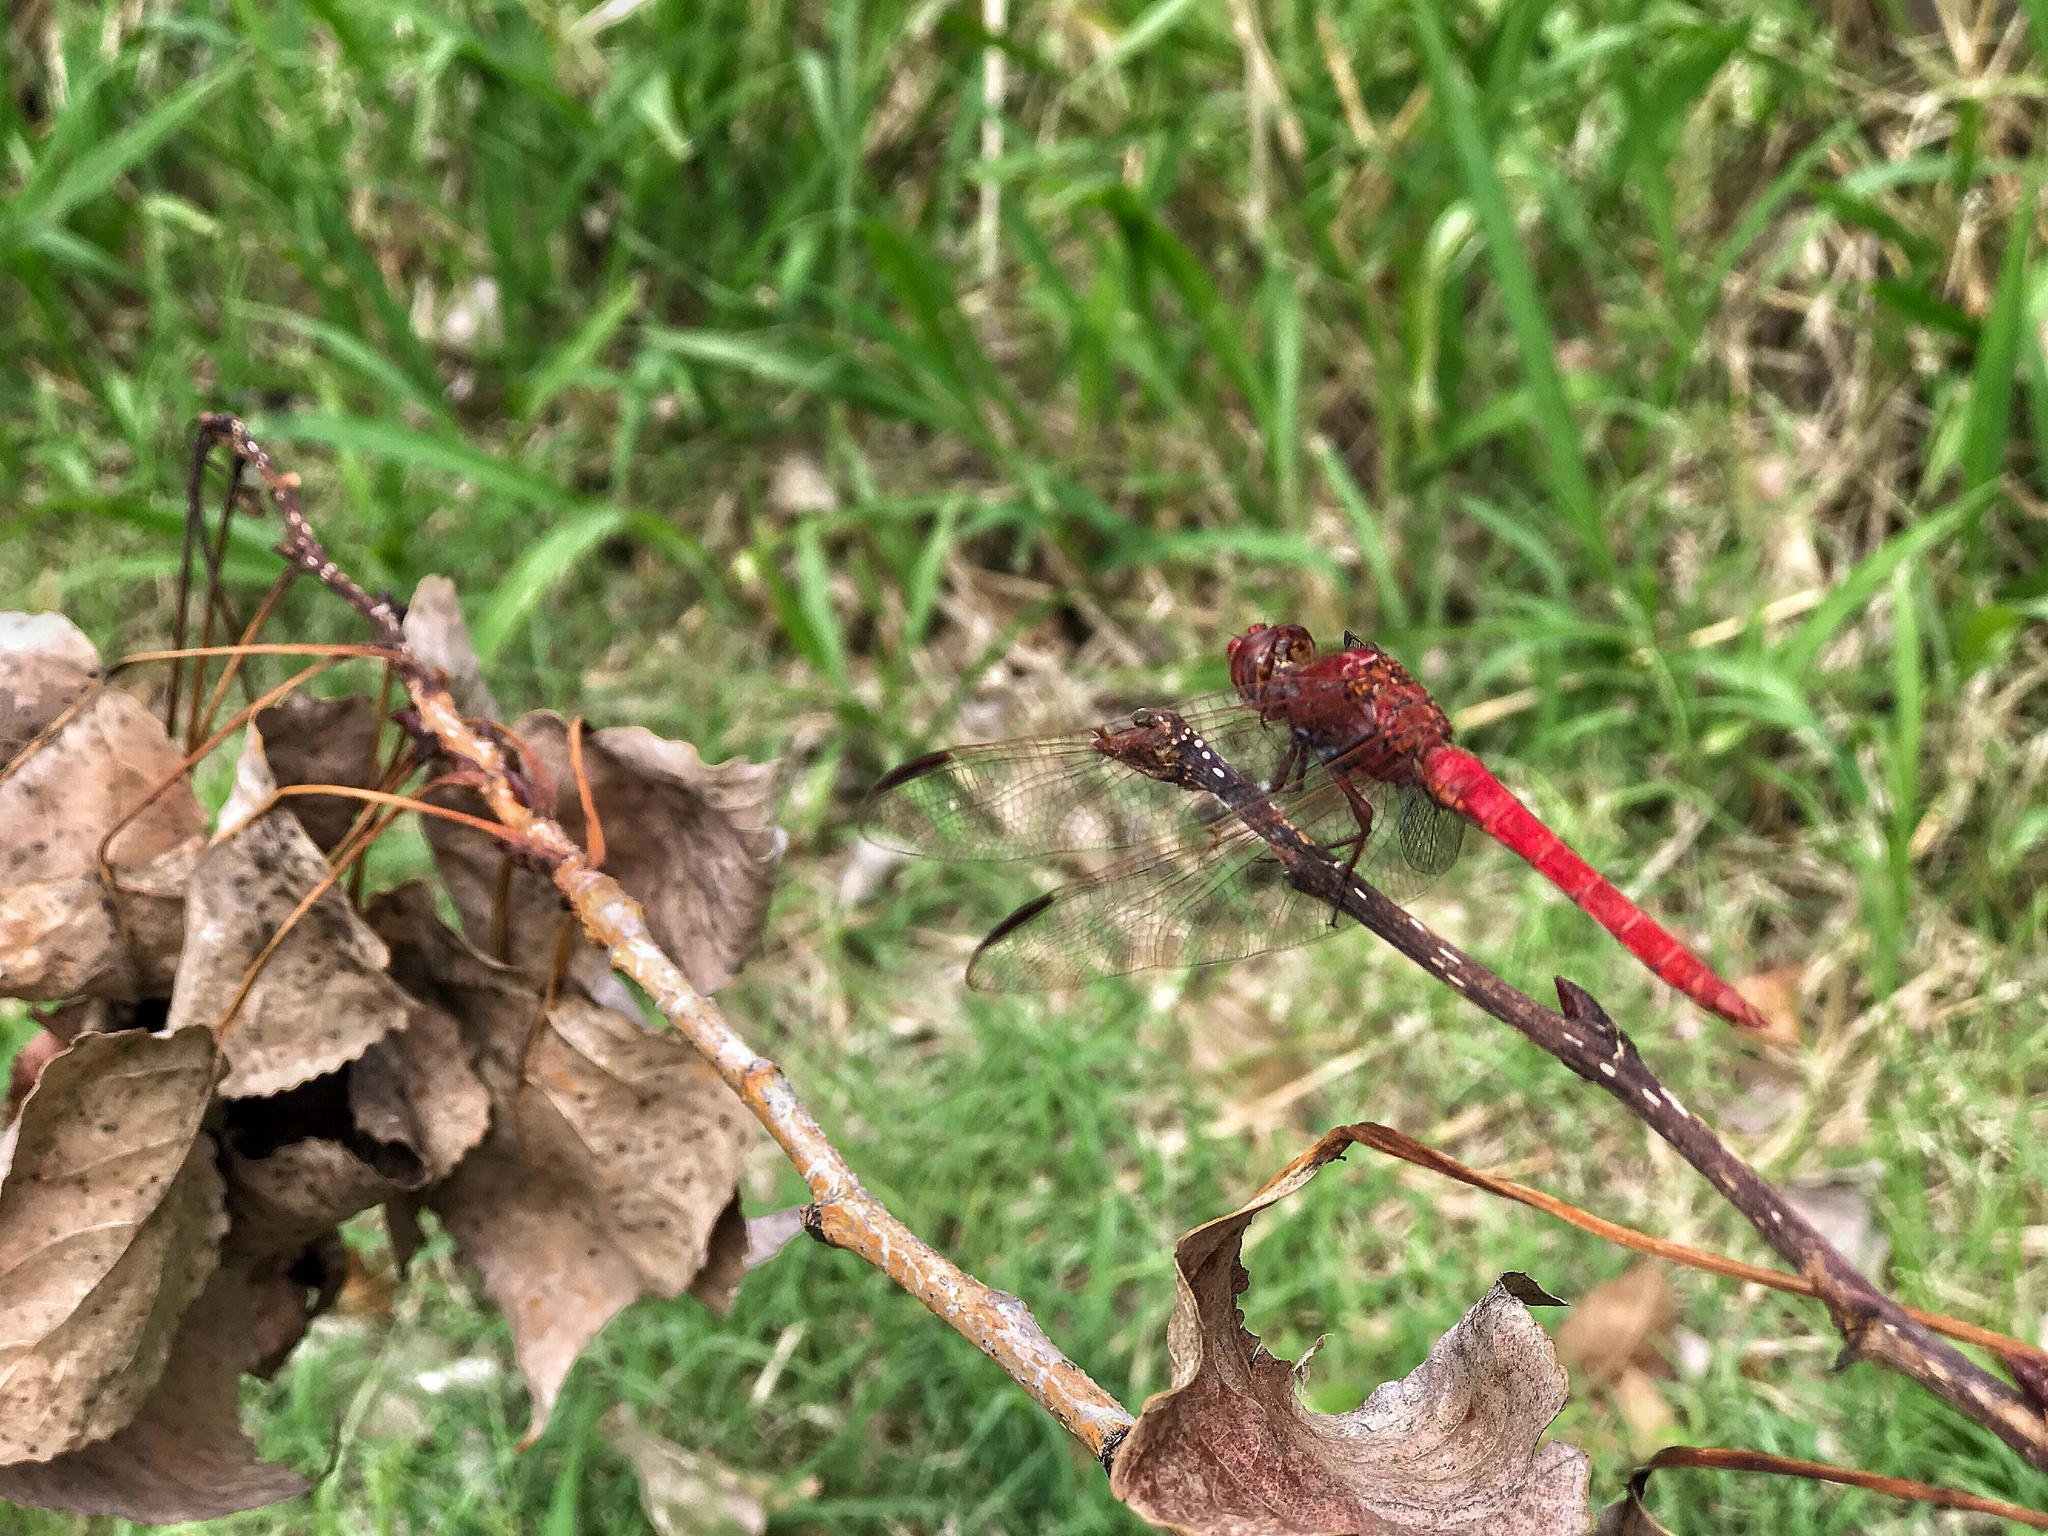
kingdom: Animalia
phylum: Arthropoda
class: Insecta
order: Odonata
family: Libellulidae
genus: Orthemis
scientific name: Orthemis nodiplaga
